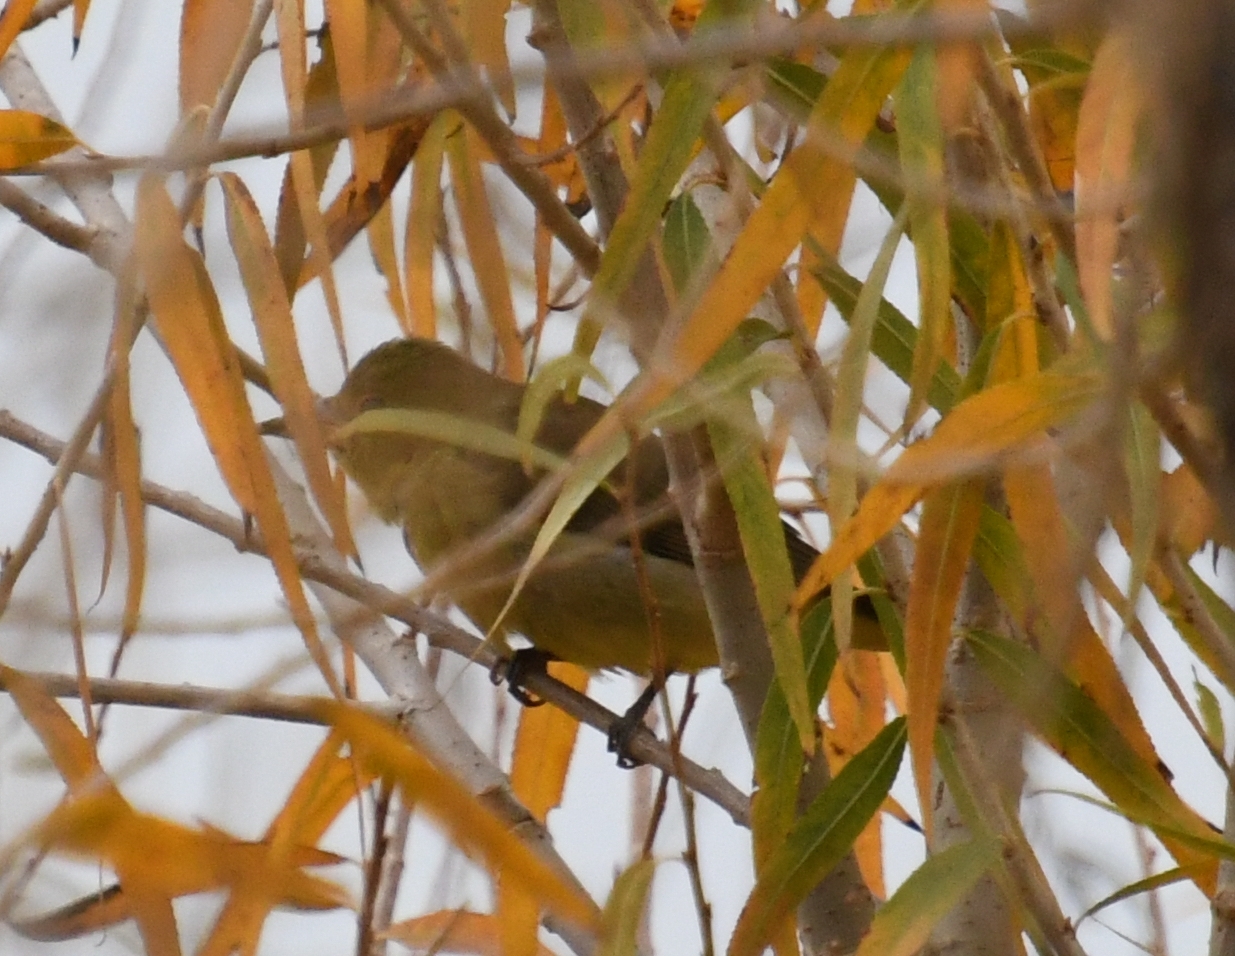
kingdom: Animalia
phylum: Chordata
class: Aves
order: Passeriformes
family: Cardinalidae
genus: Piranga
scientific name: Piranga olivacea
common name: Scarlet tanager
